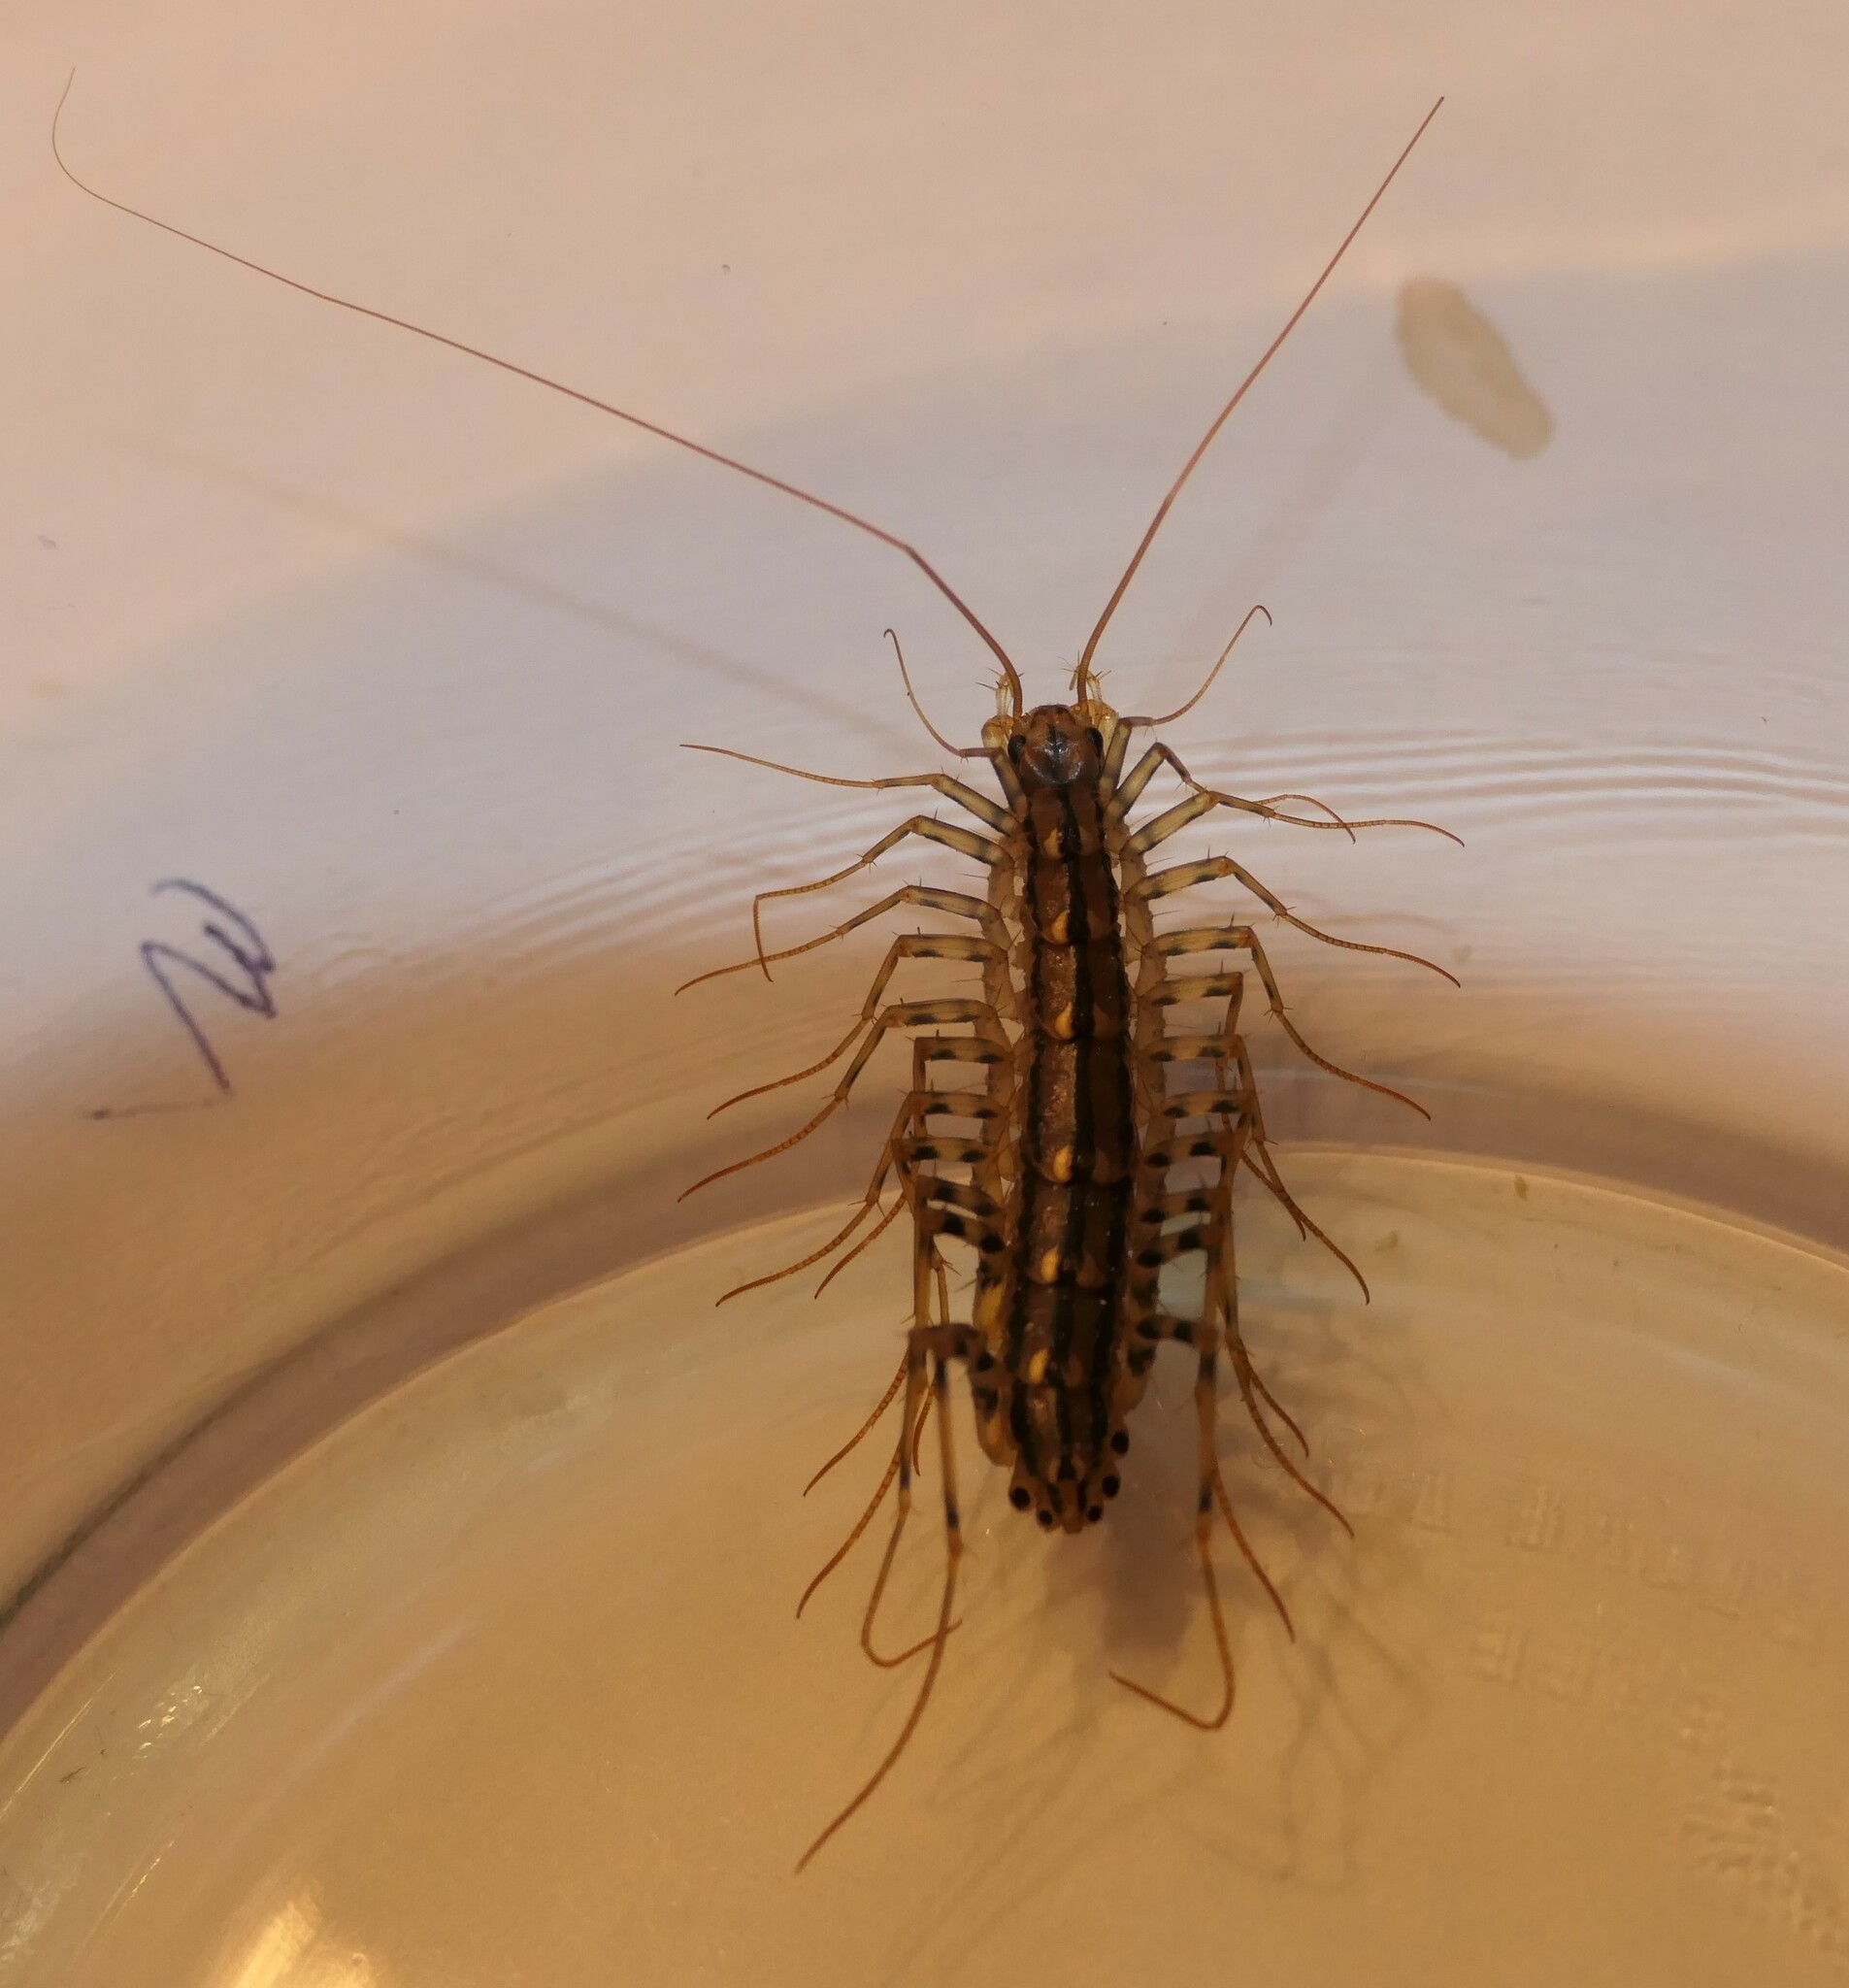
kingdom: Animalia
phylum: Arthropoda
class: Chilopoda
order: Scutigeromorpha
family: Scutigeridae
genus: Scutigera
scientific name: Scutigera coleoptrata
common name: House centipede
